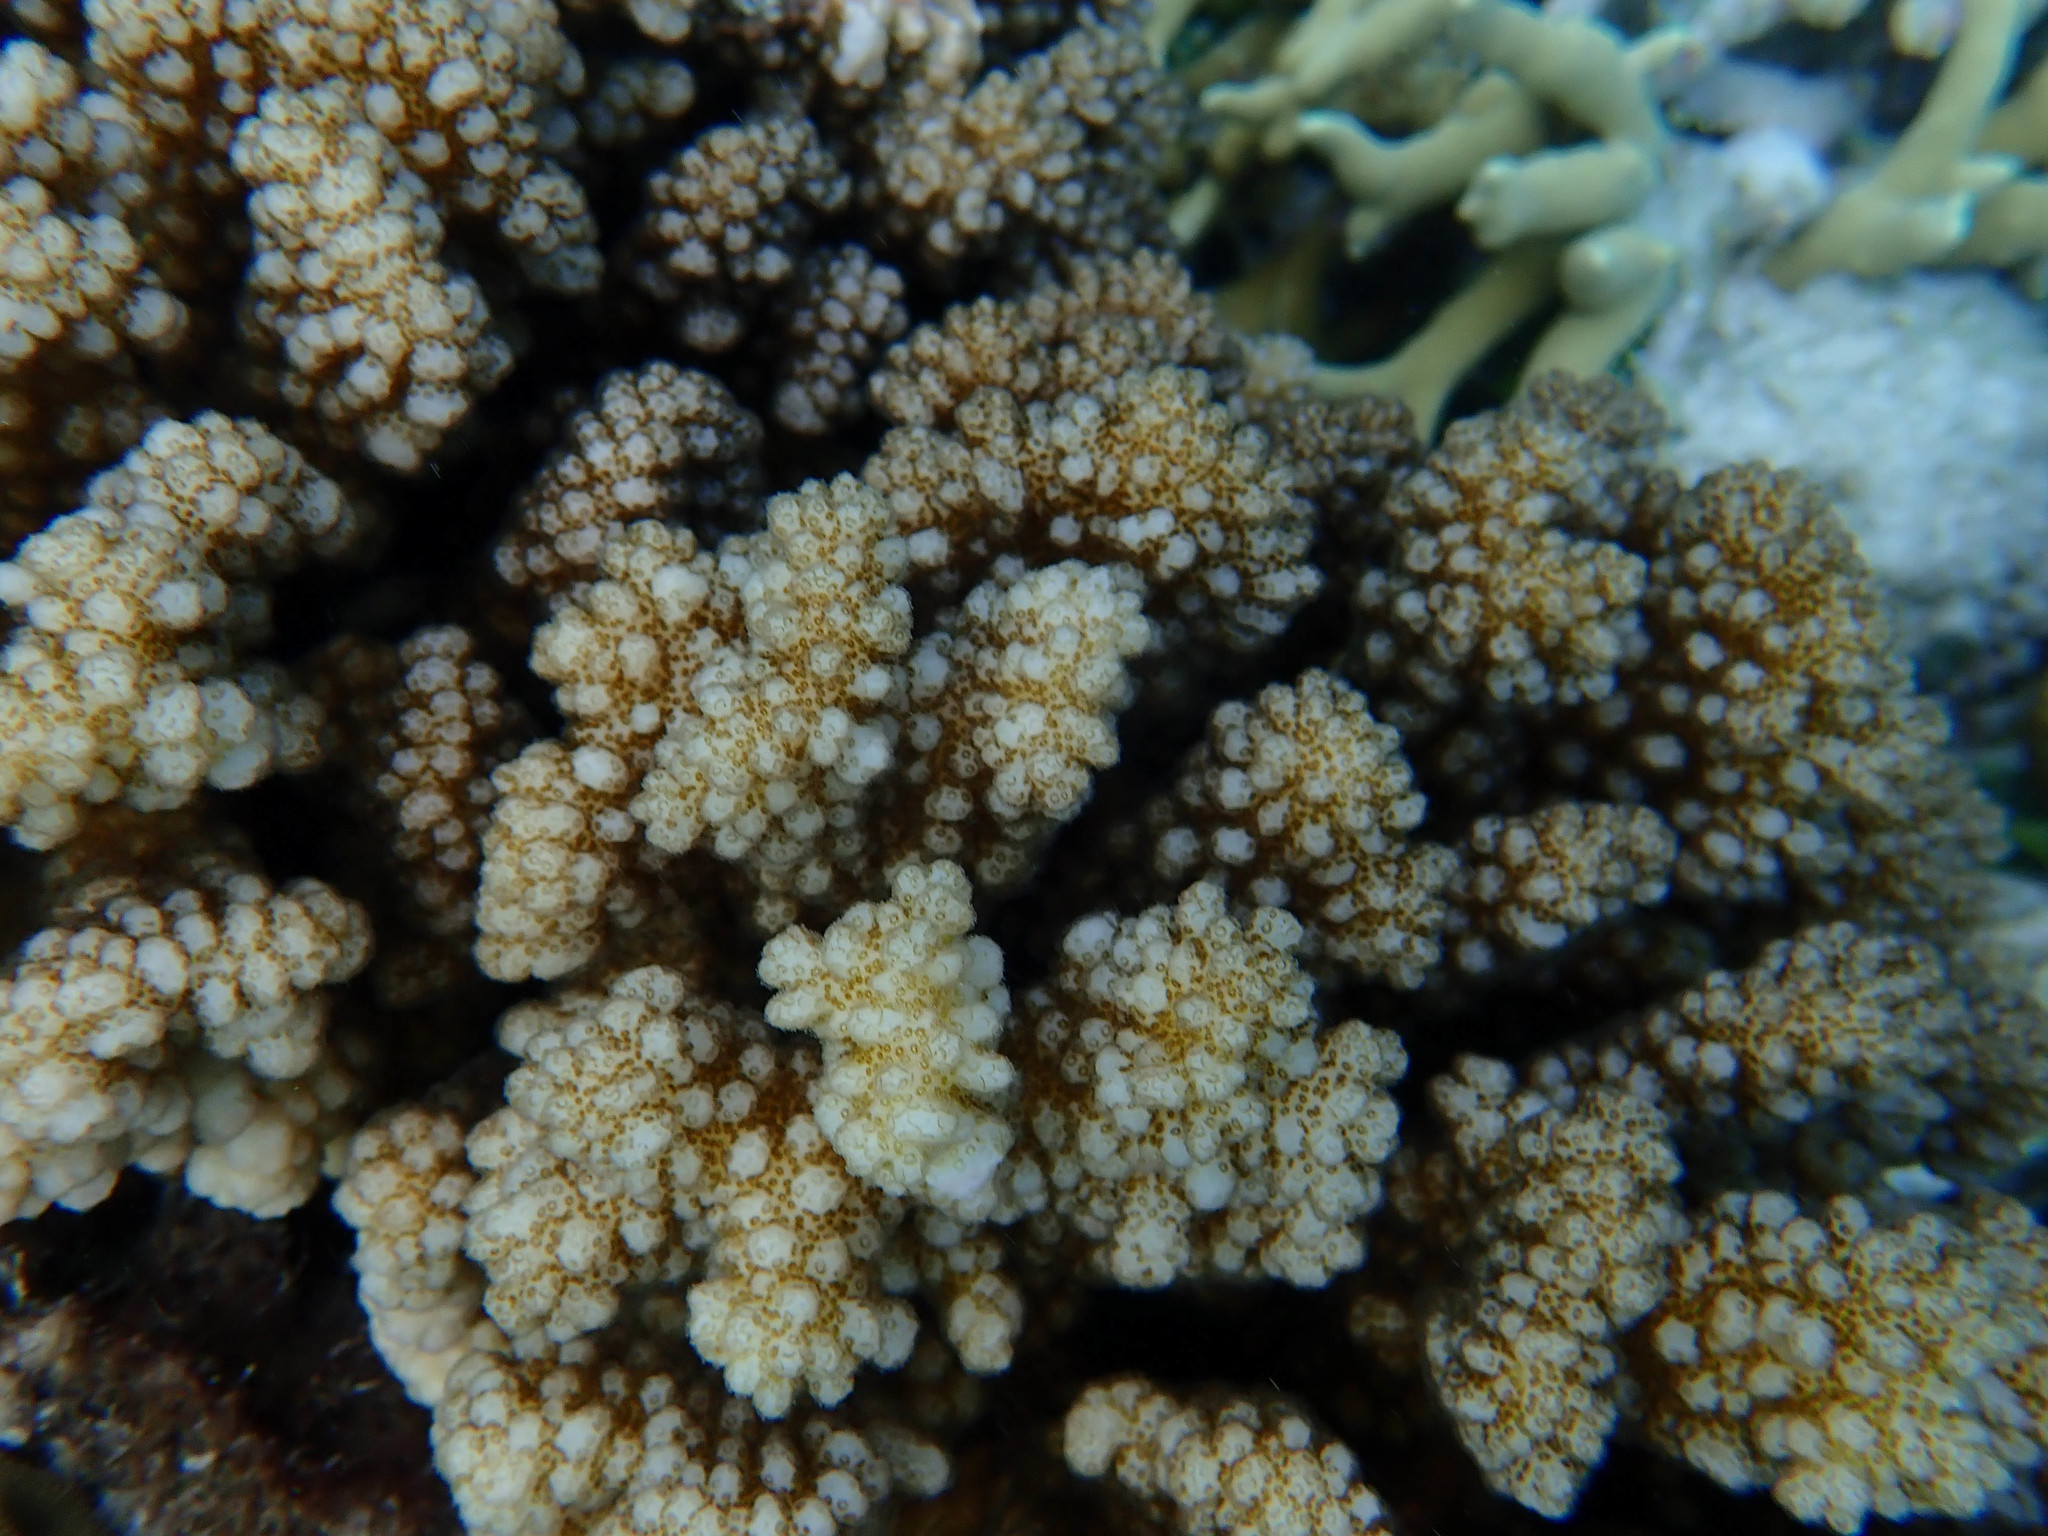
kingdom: Animalia
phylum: Cnidaria
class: Anthozoa
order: Scleractinia
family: Pocilloporidae
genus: Pocillopora
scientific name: Pocillopora verrucosa
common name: Cauliflower coral
